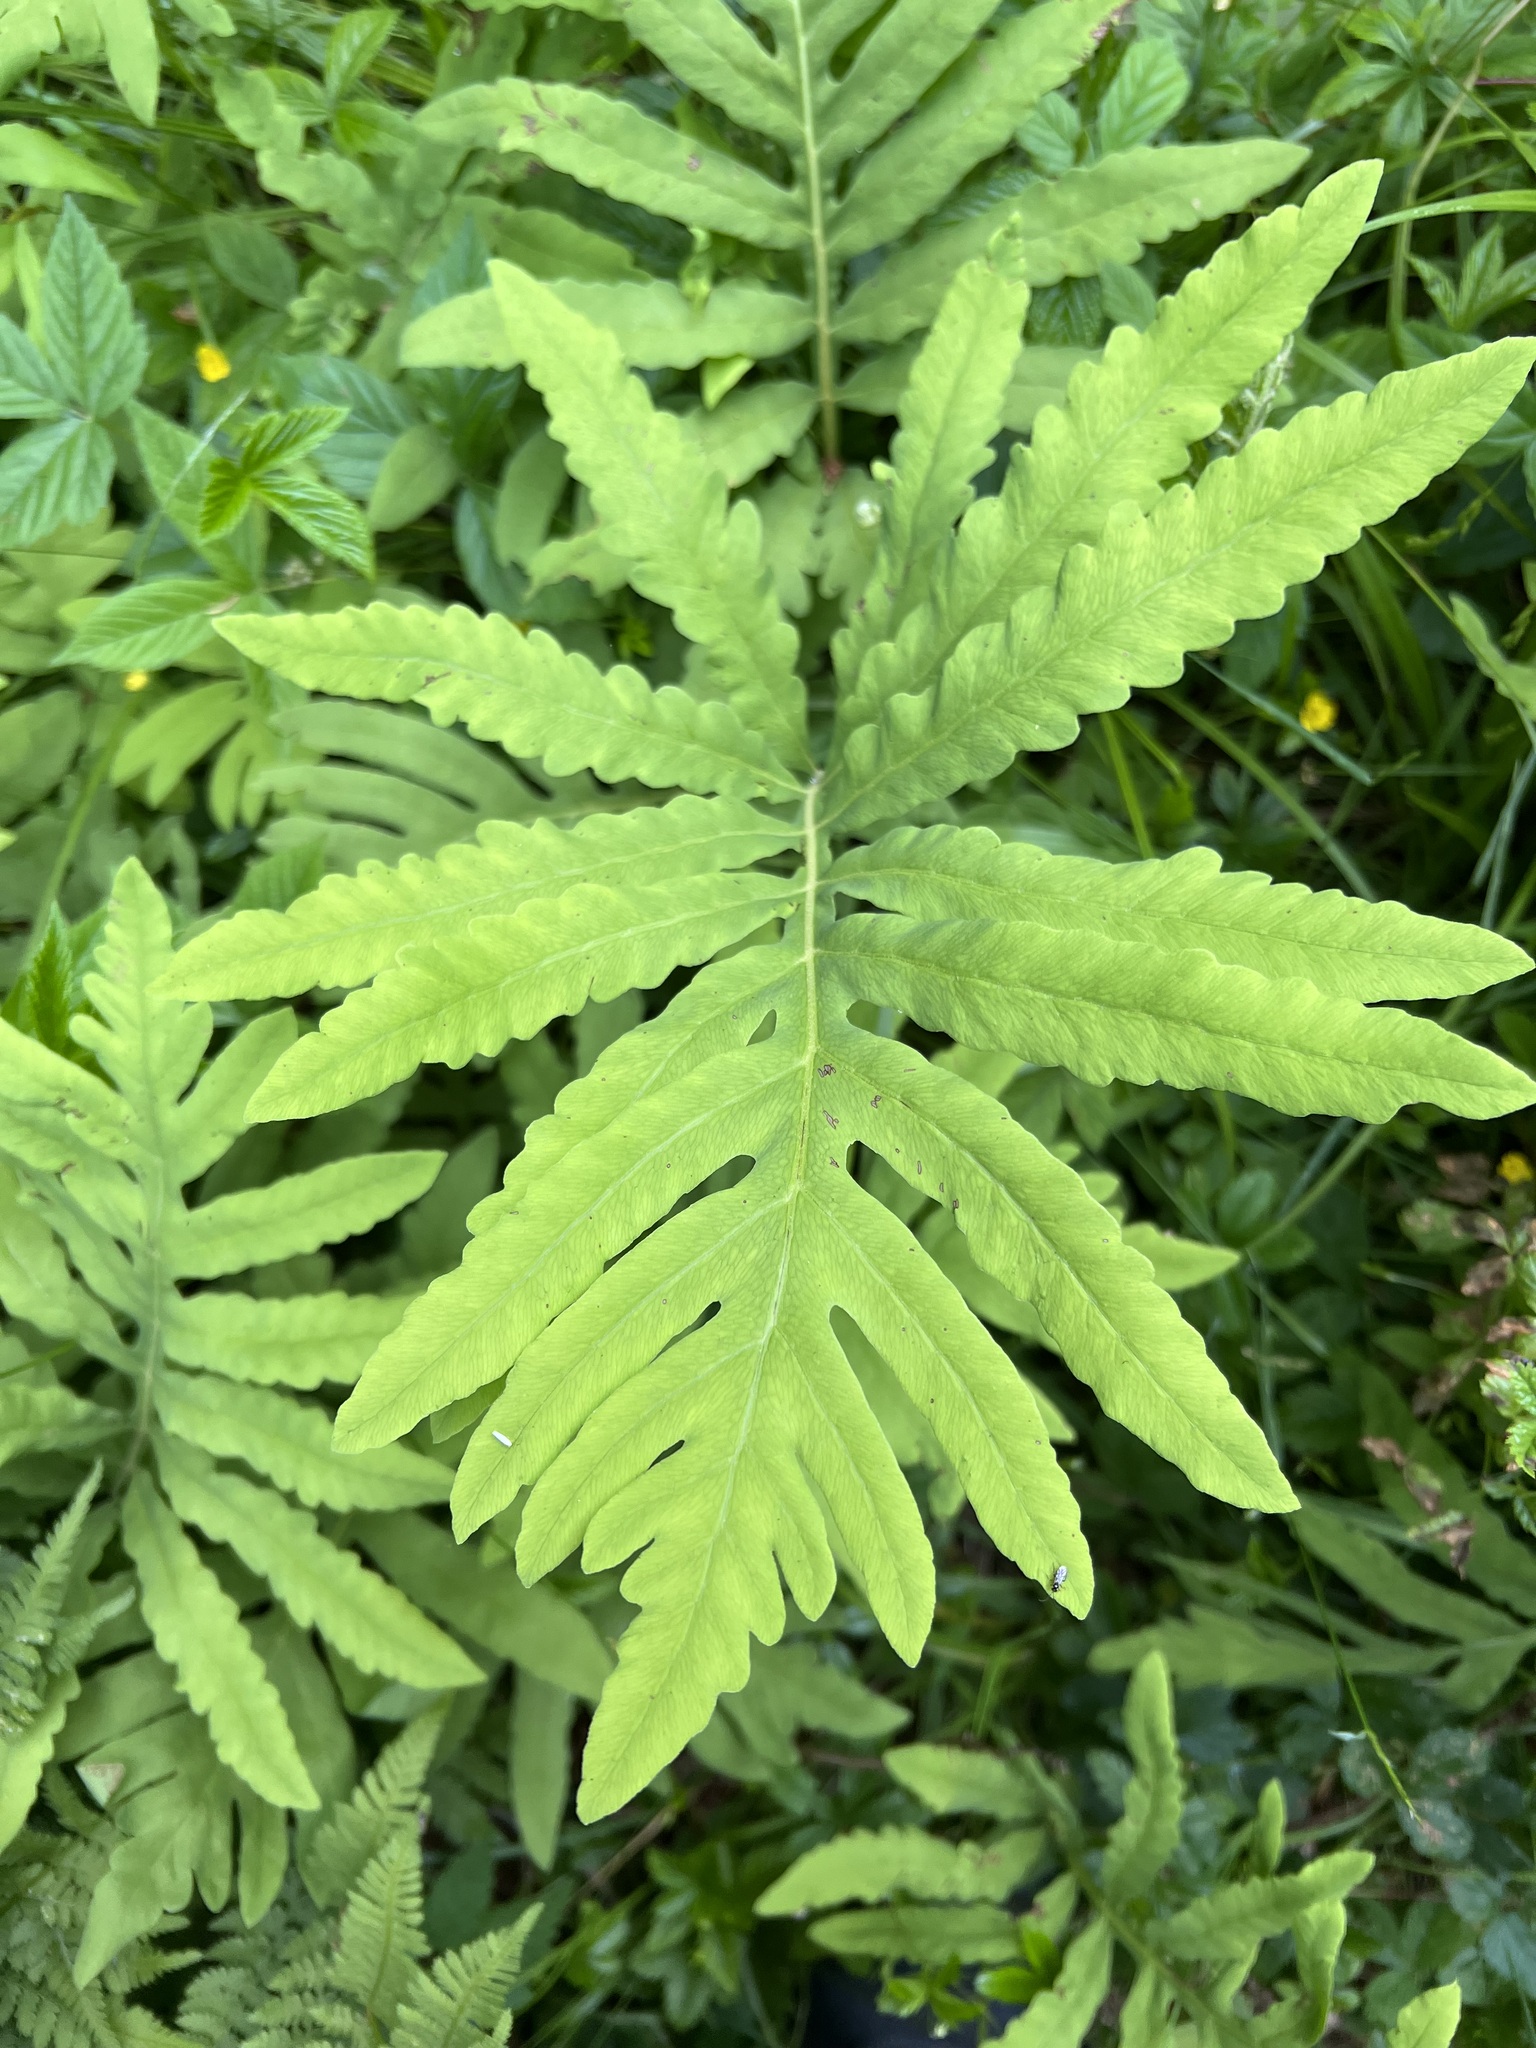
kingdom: Plantae
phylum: Tracheophyta
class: Polypodiopsida
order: Polypodiales
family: Onocleaceae
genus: Onoclea
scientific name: Onoclea sensibilis
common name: Sensitive fern
